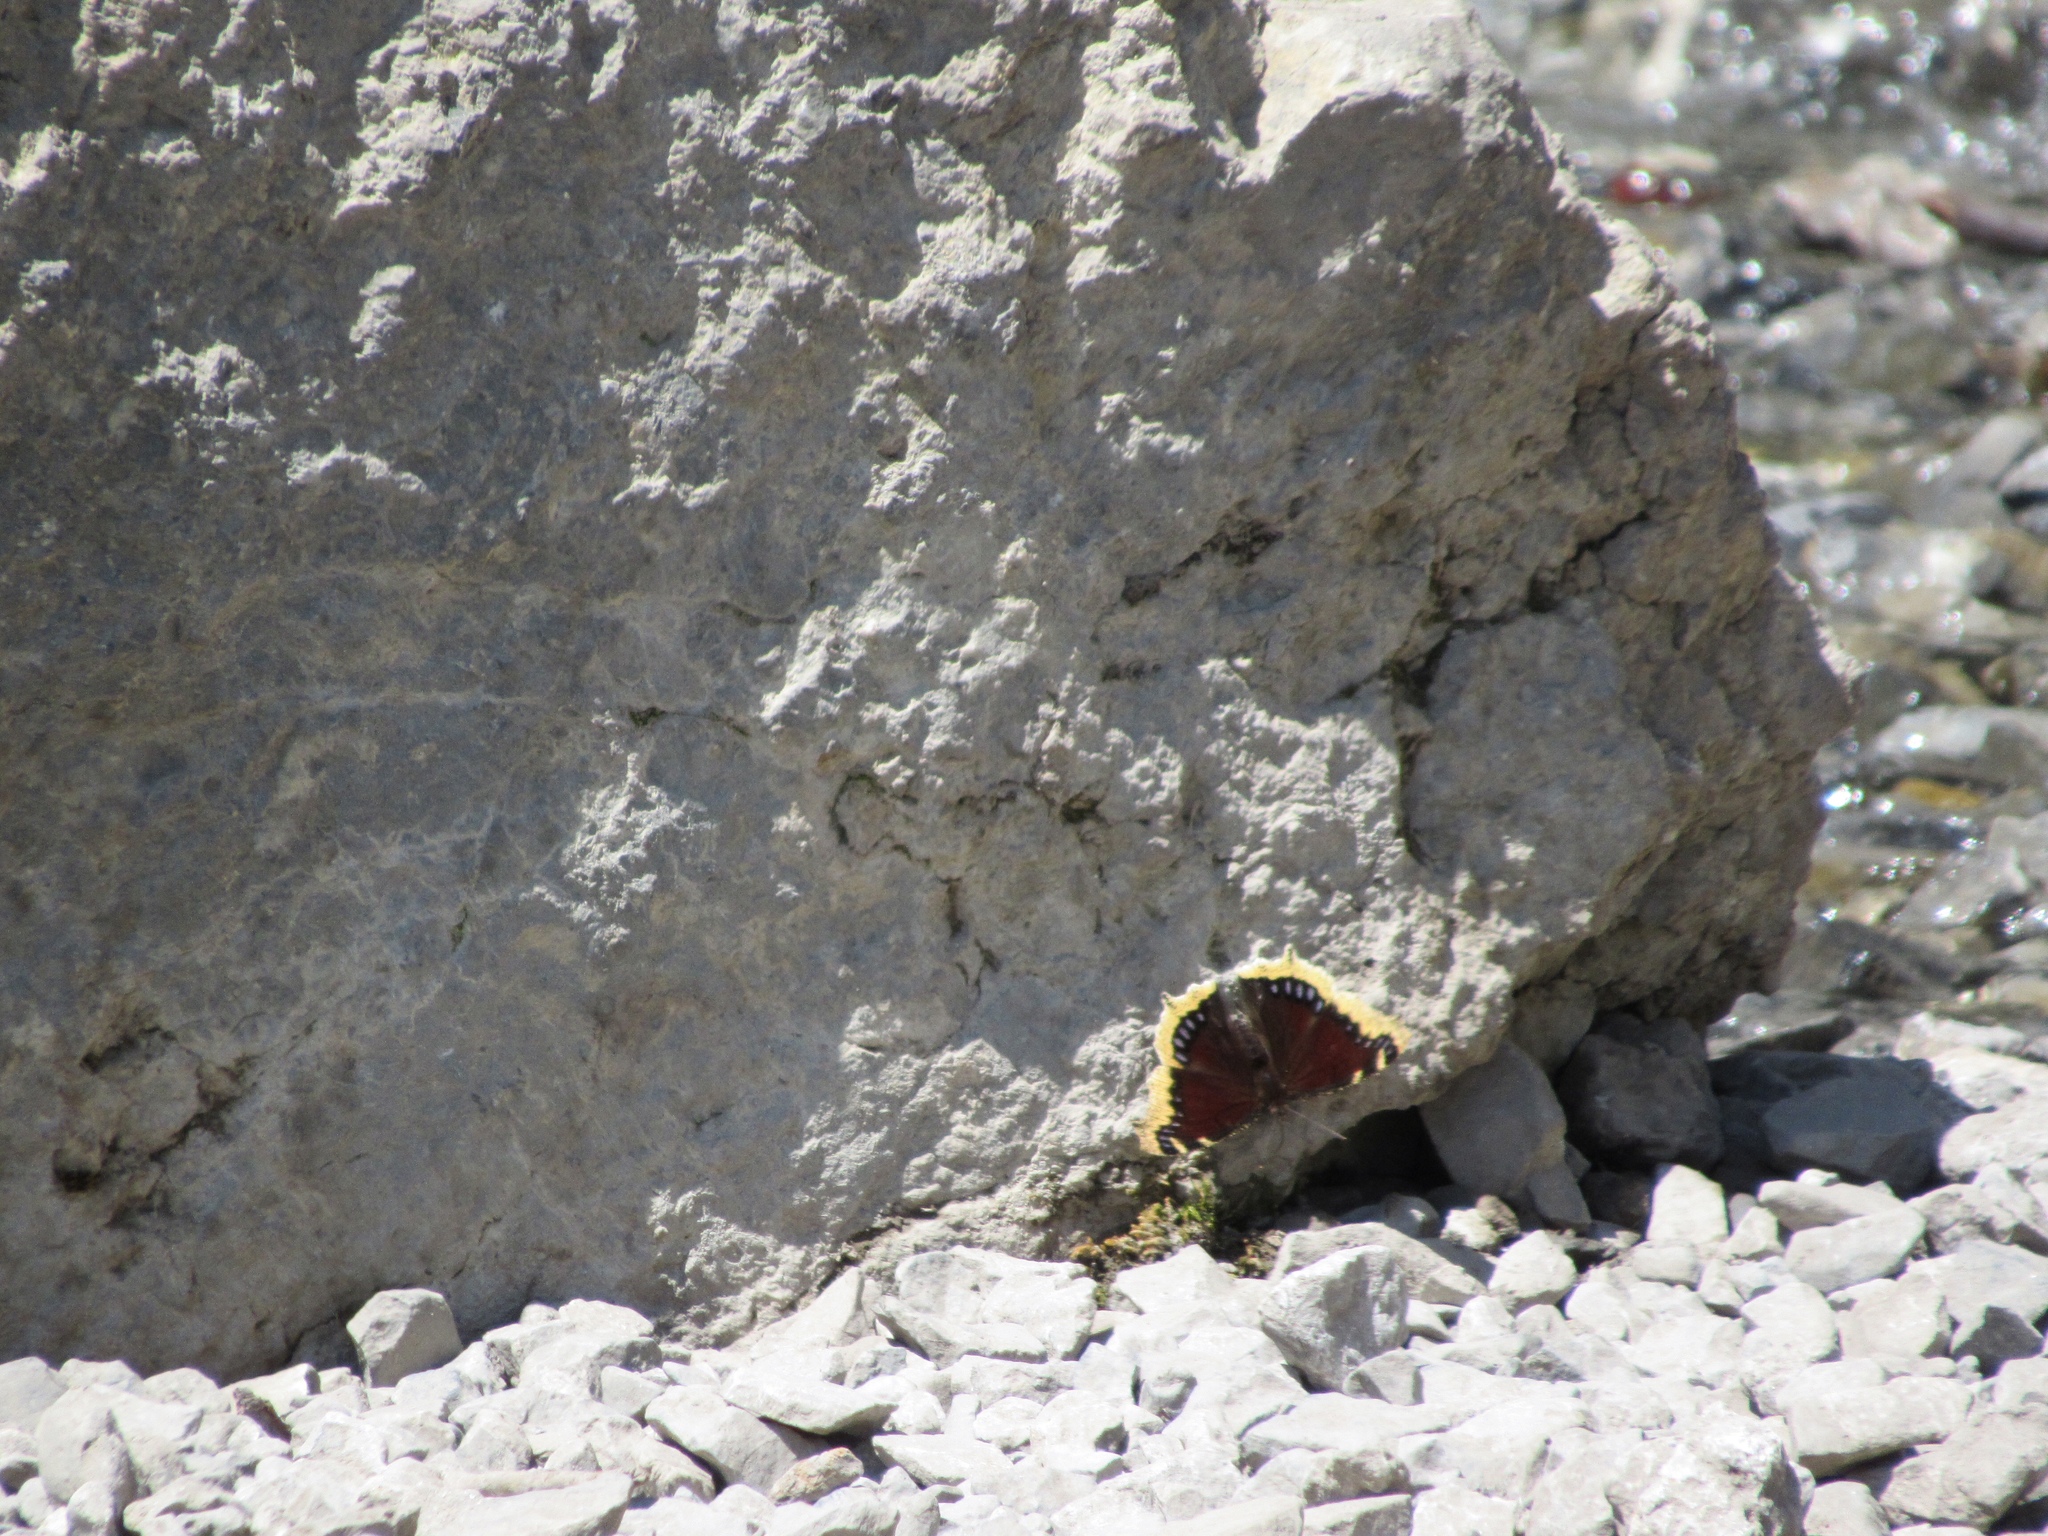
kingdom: Animalia
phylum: Arthropoda
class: Insecta
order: Lepidoptera
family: Nymphalidae
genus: Nymphalis
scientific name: Nymphalis antiopa
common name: Camberwell beauty
